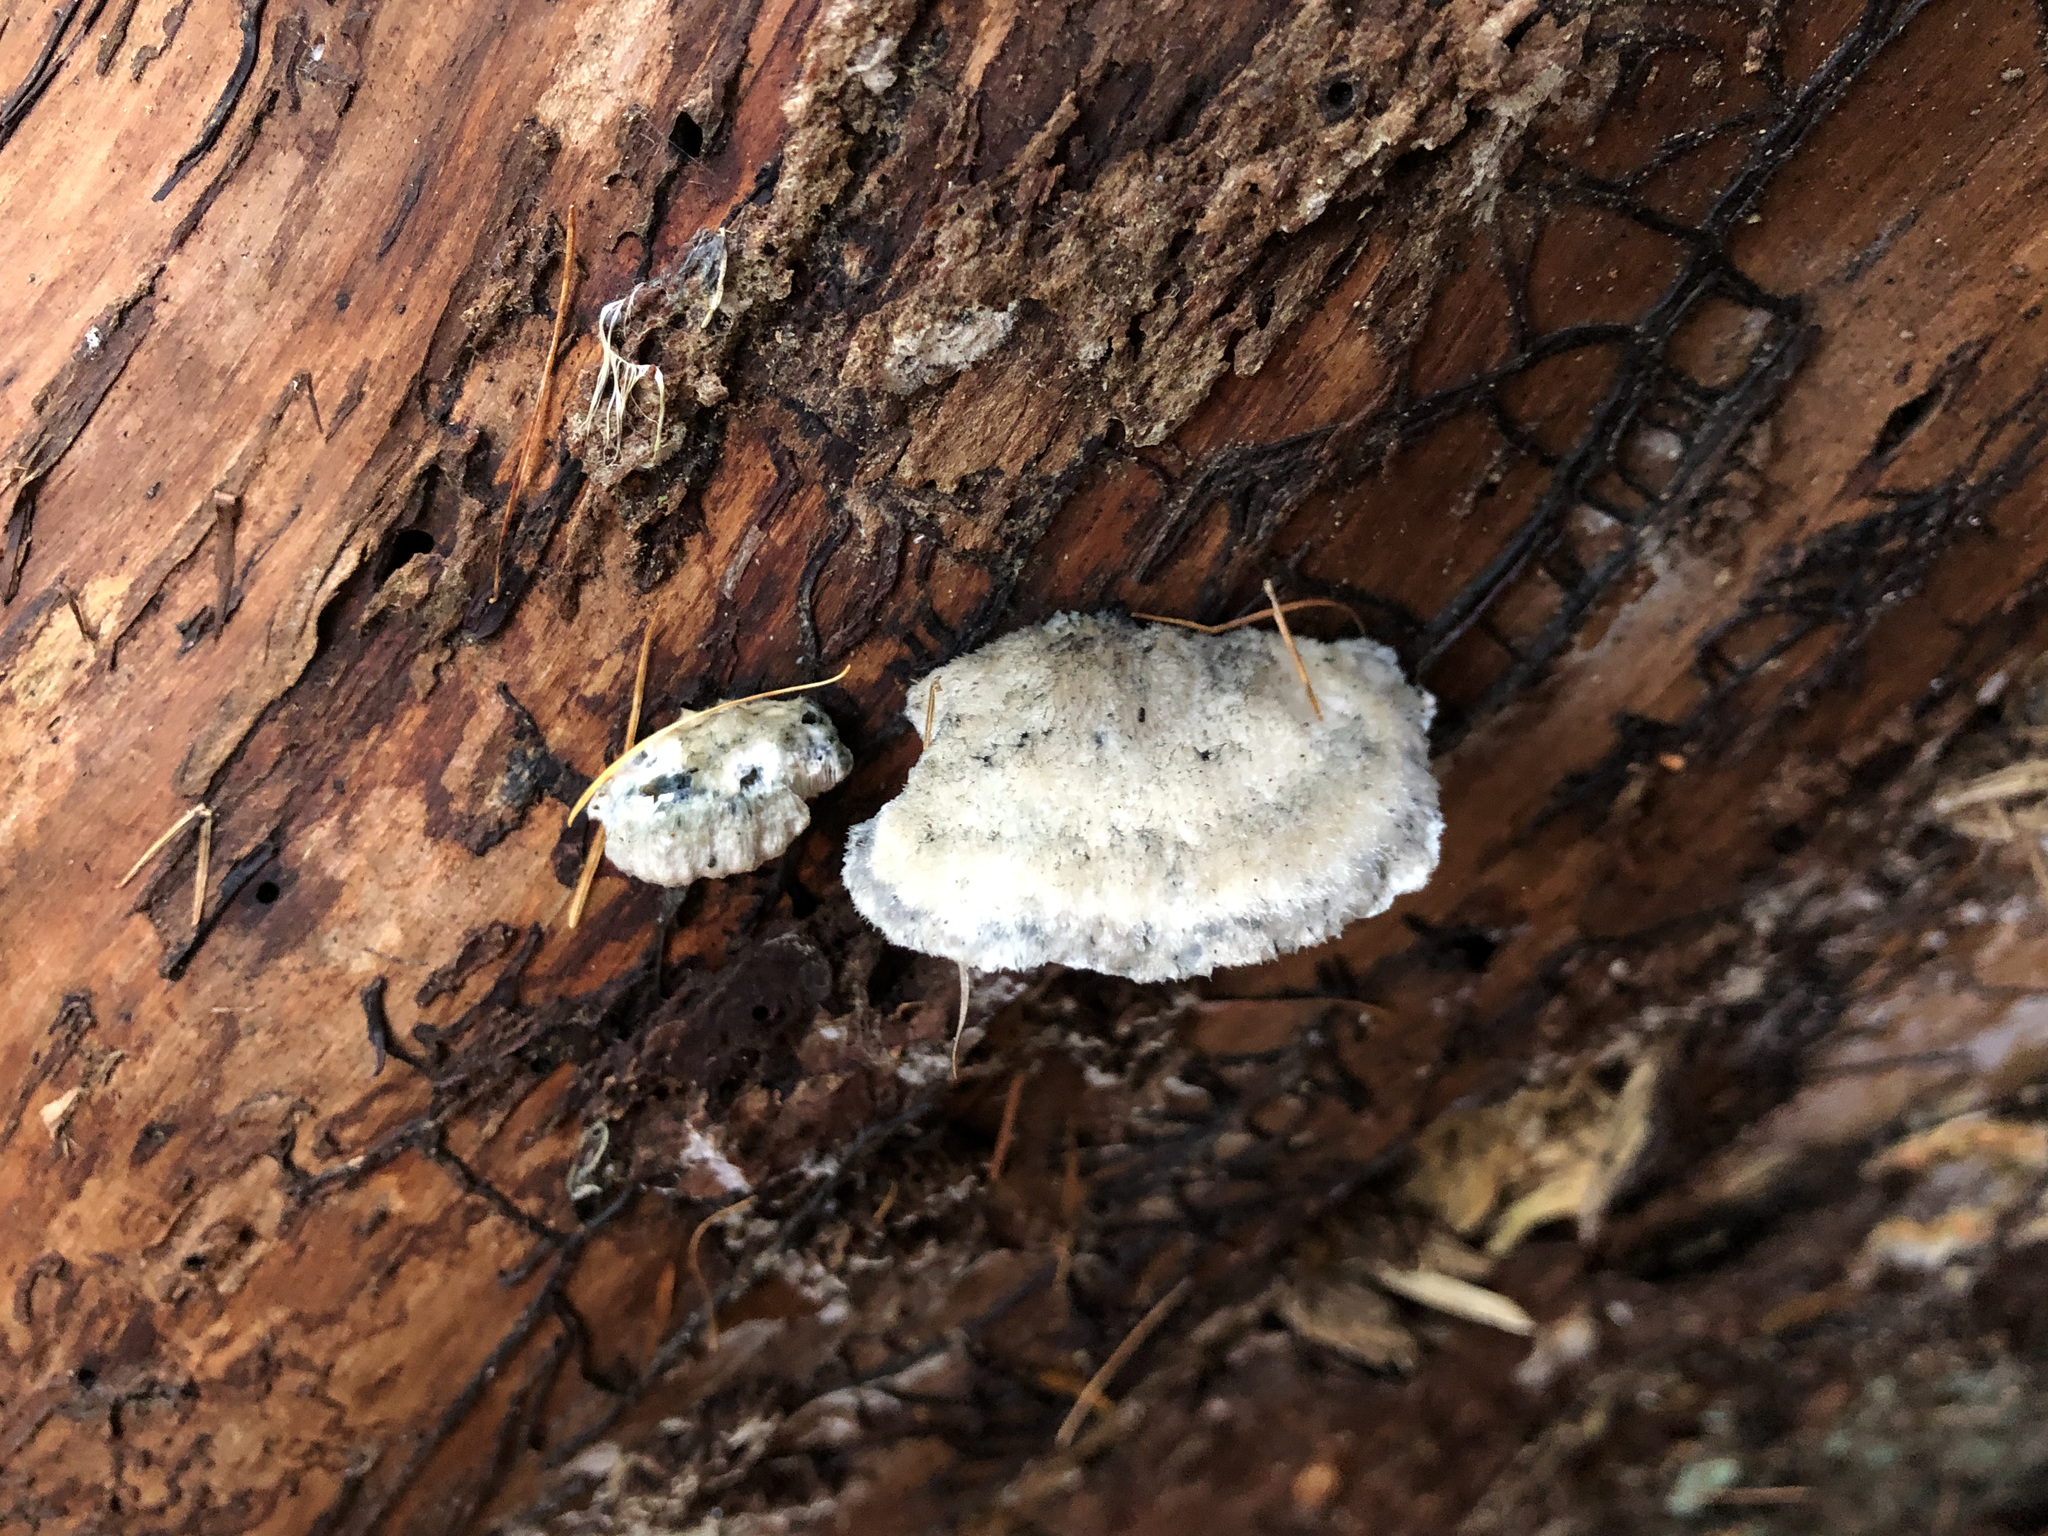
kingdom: Fungi
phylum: Basidiomycota
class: Agaricomycetes
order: Polyporales
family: Polyporaceae
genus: Cyanosporus
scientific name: Cyanosporus caesius
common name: Blue cheese polypore
